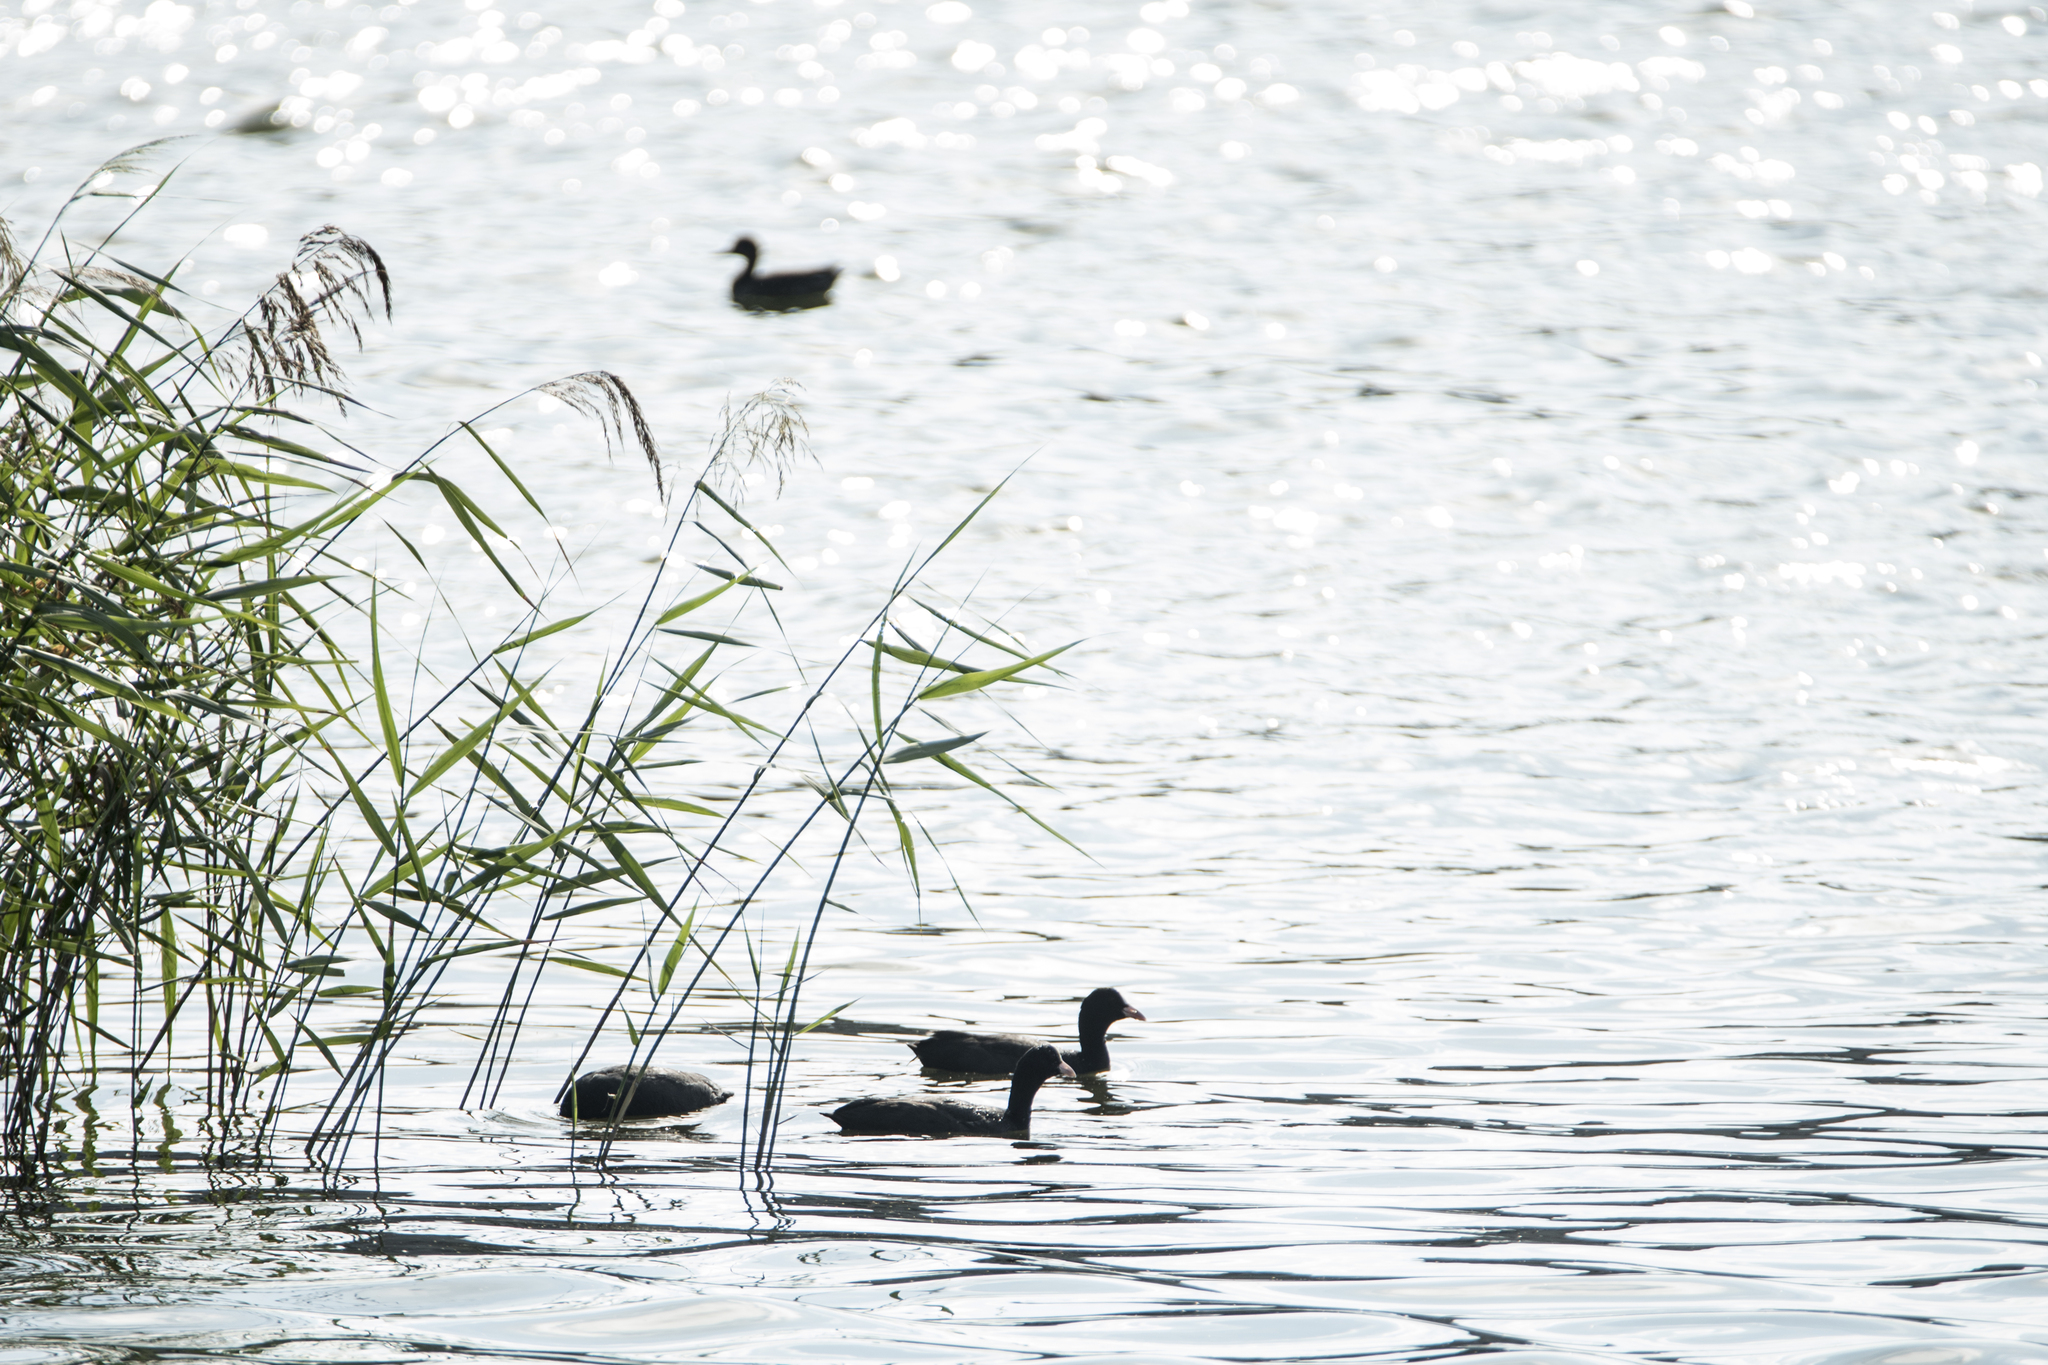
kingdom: Animalia
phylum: Chordata
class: Aves
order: Gruiformes
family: Rallidae
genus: Fulica
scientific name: Fulica atra
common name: Eurasian coot
